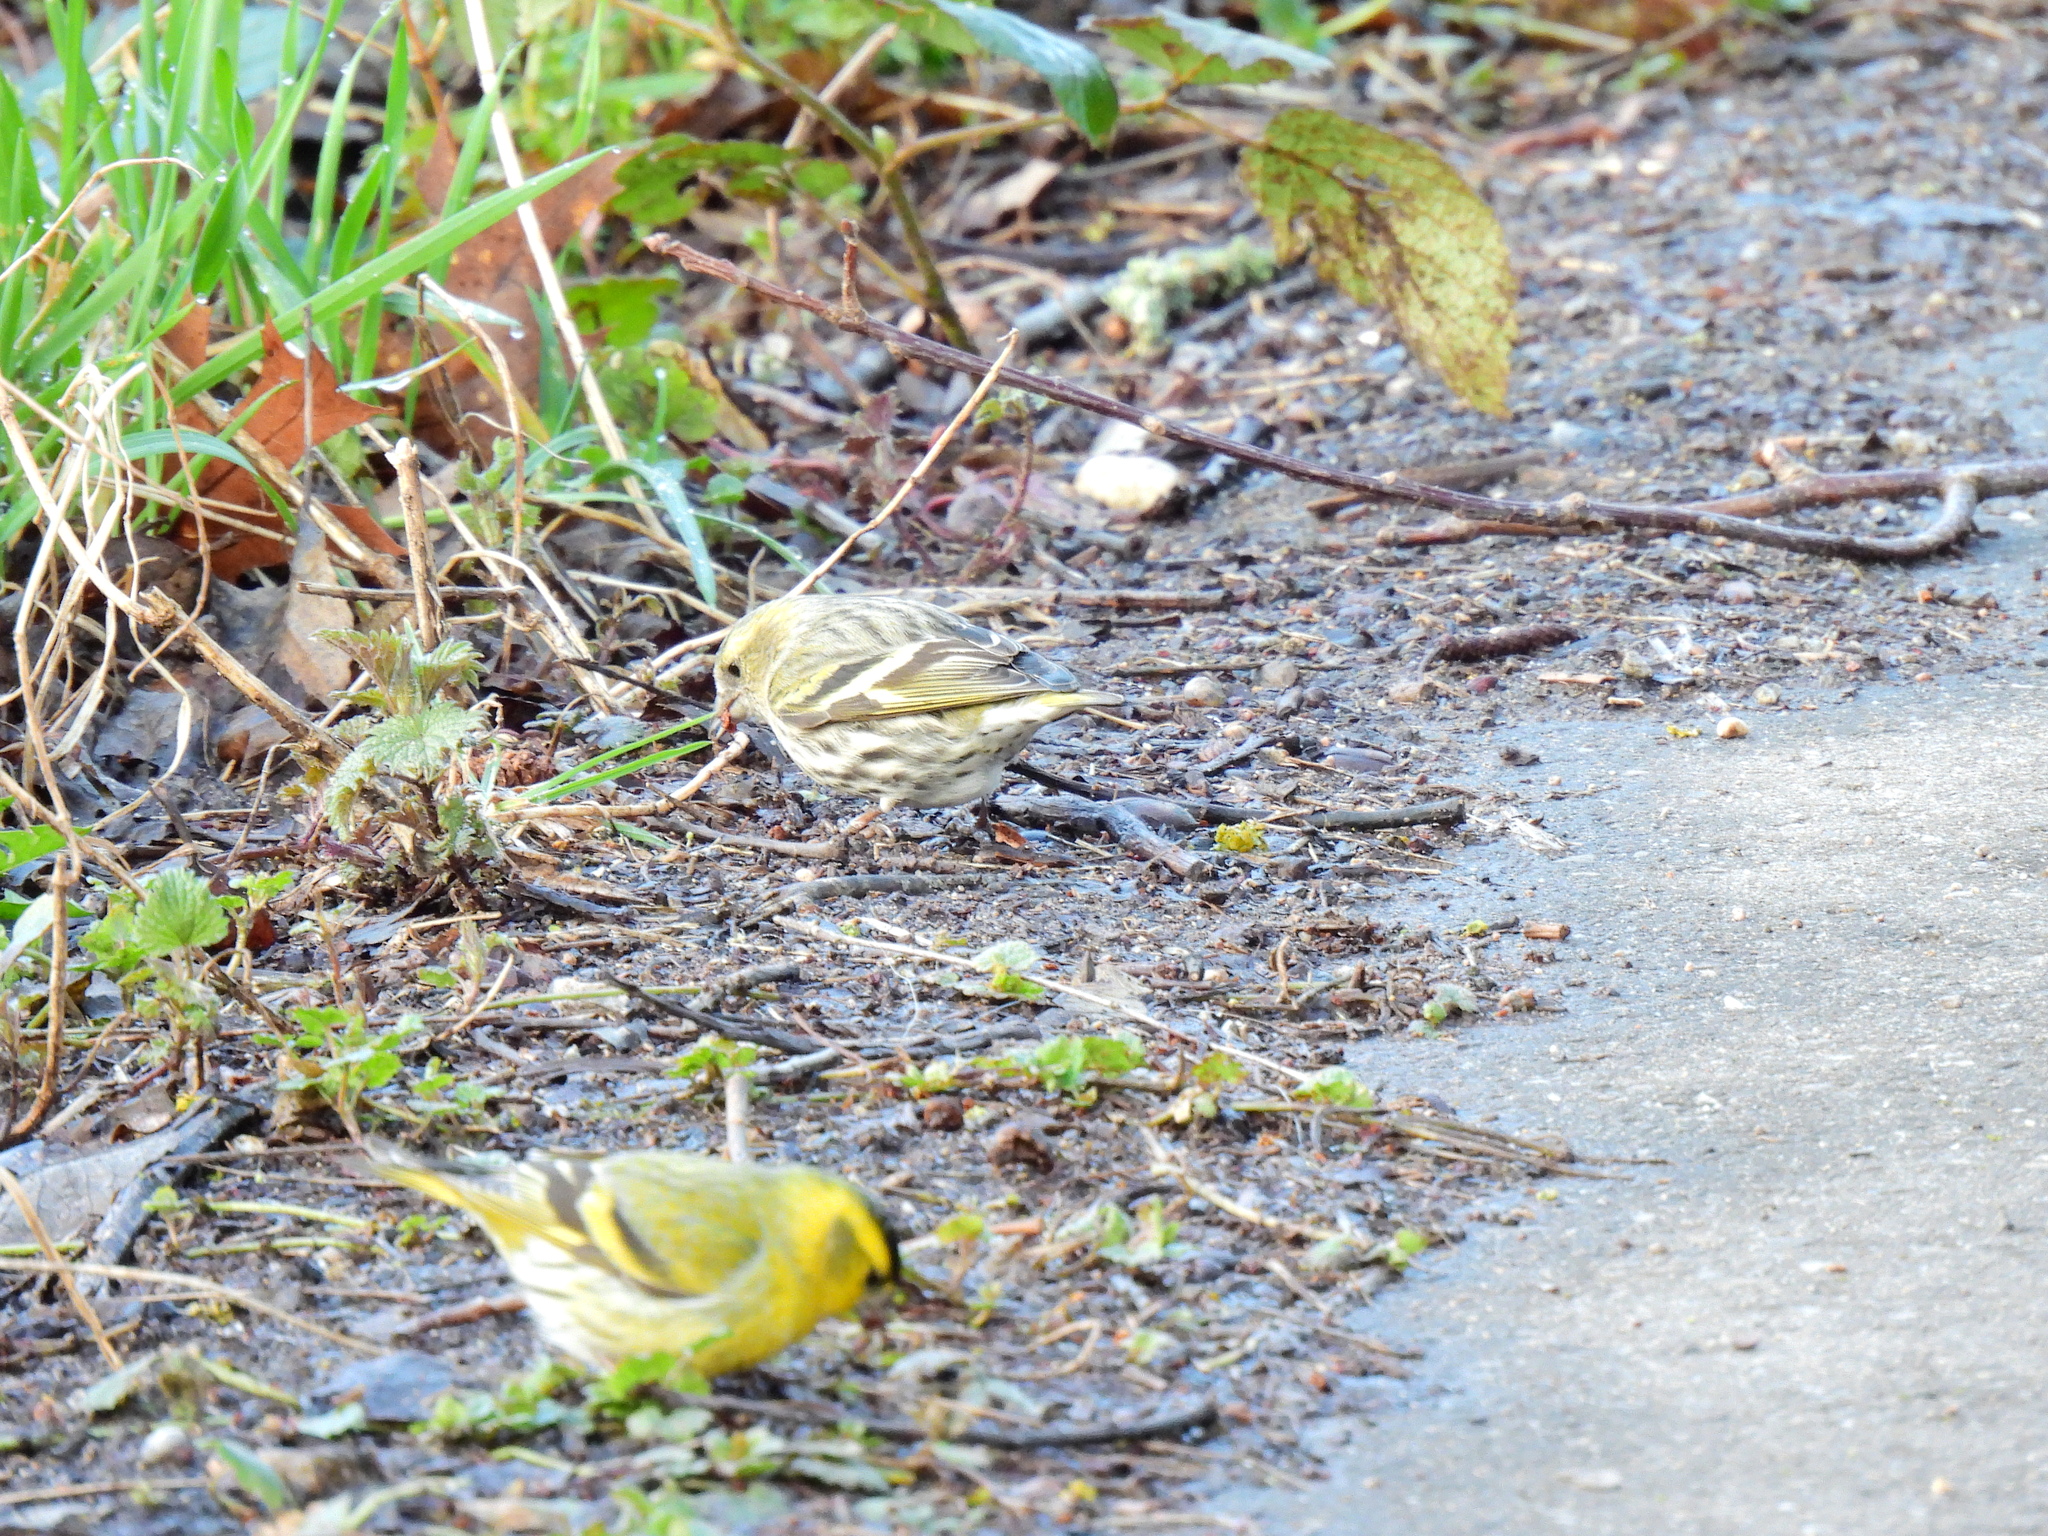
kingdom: Animalia
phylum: Chordata
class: Aves
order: Passeriformes
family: Fringillidae
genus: Spinus
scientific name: Spinus spinus
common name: Eurasian siskin
